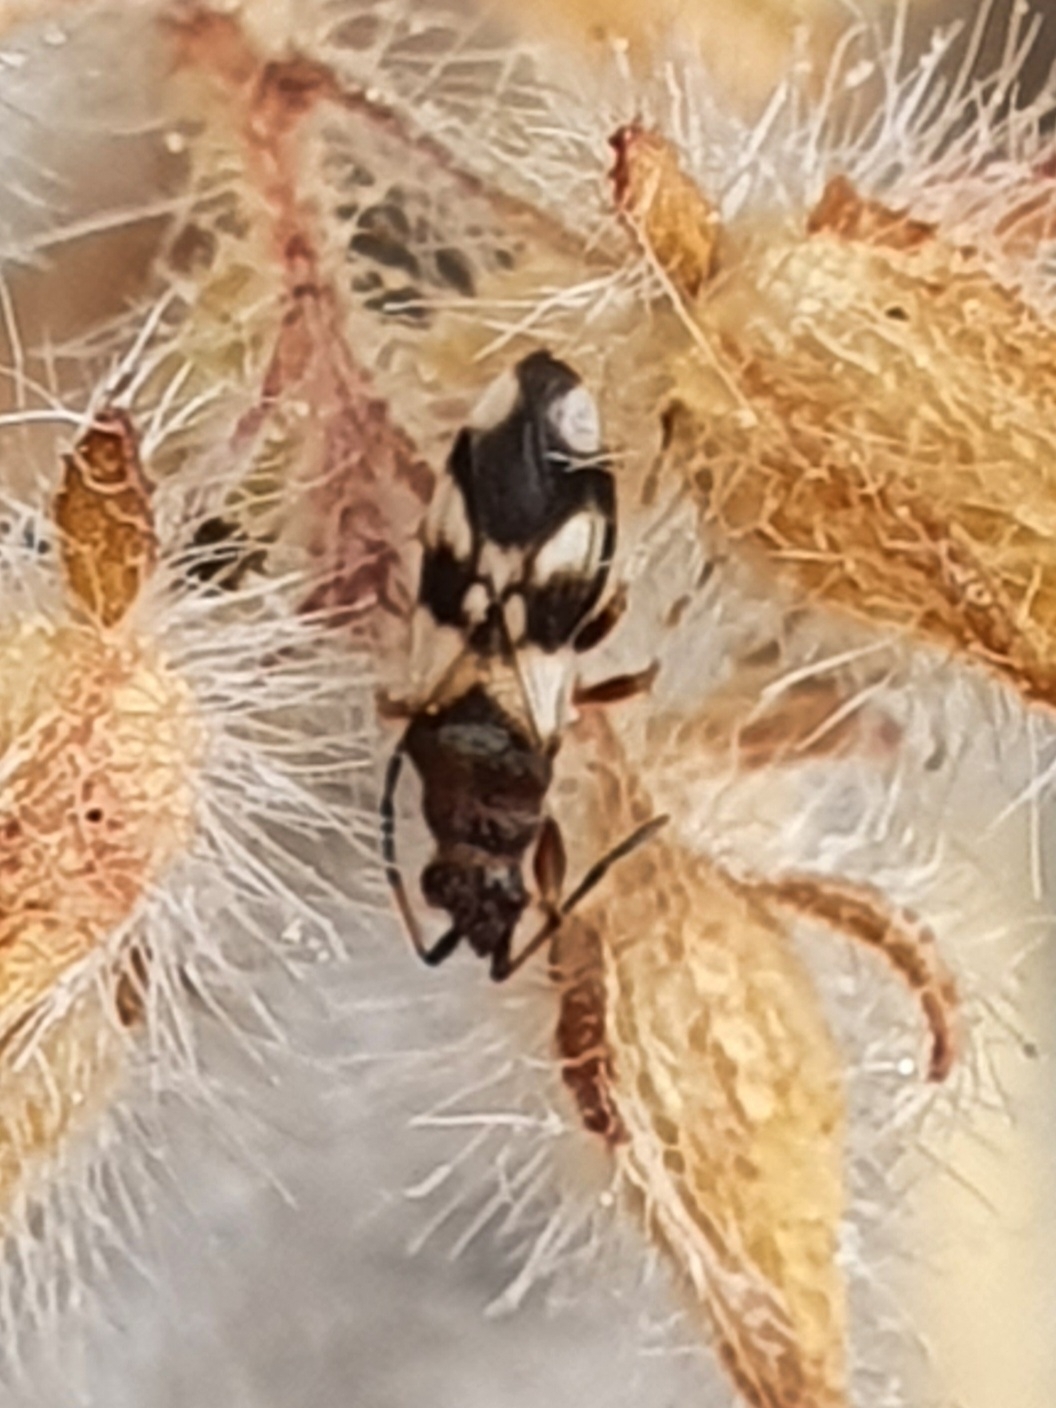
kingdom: Animalia
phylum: Arthropoda
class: Insecta
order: Hemiptera
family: Oxycarenidae
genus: Macroplax
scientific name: Macroplax fasciata
